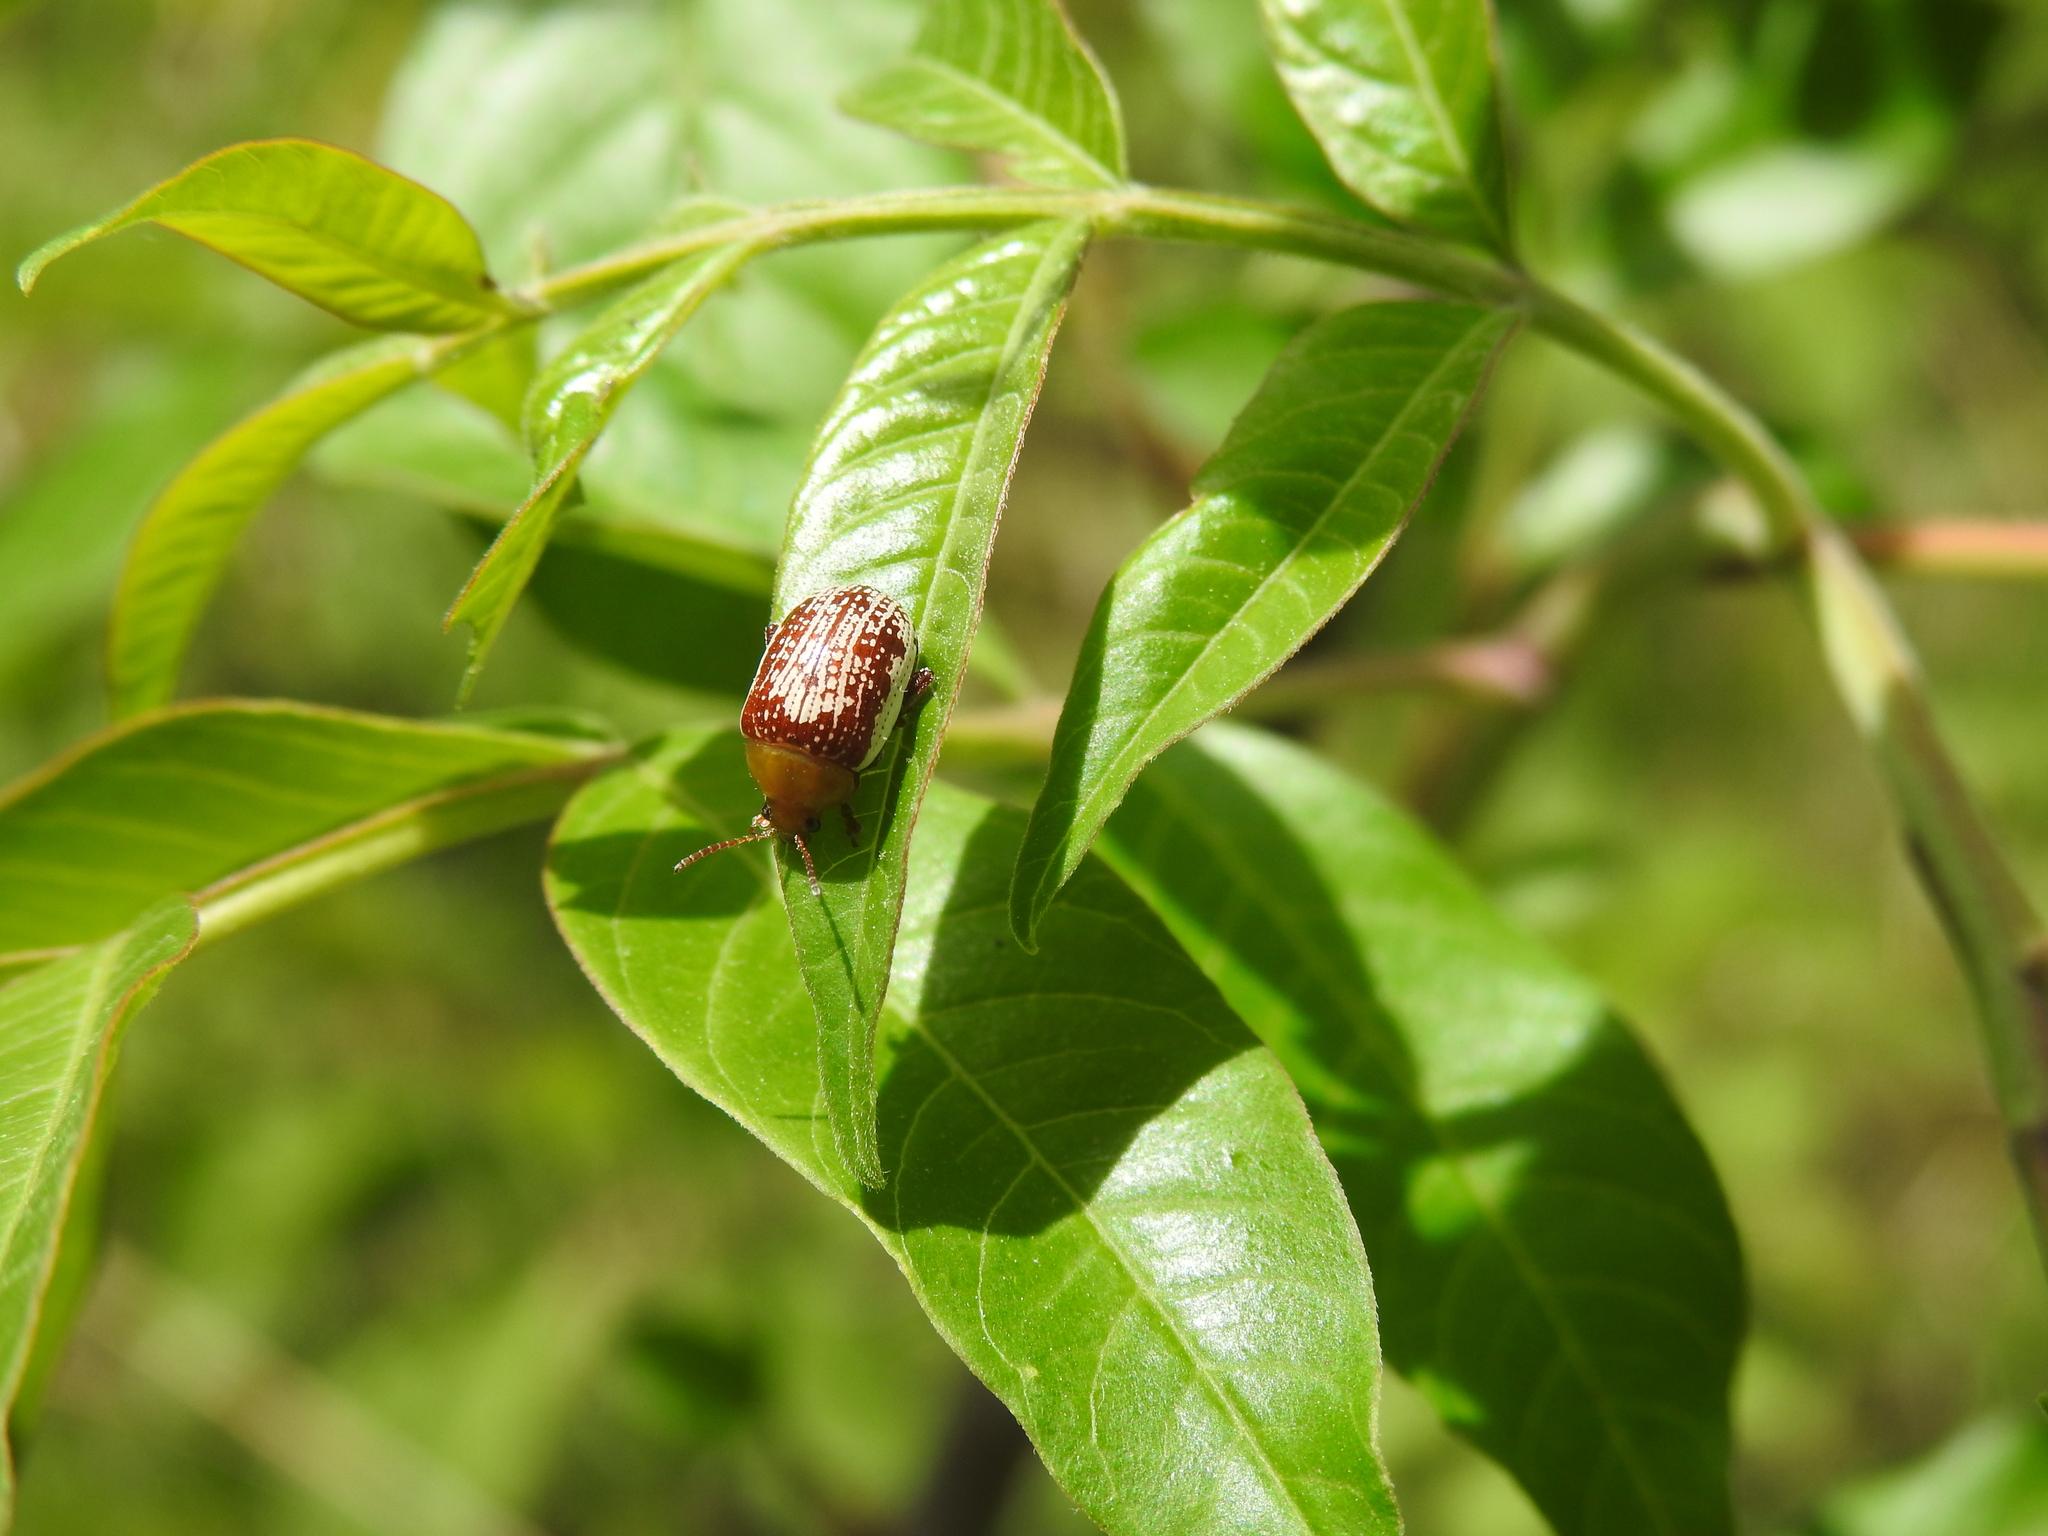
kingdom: Animalia
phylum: Arthropoda
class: Insecta
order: Coleoptera
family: Chrysomelidae
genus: Blepharida
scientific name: Blepharida rhois
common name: Sumac flea beetle
